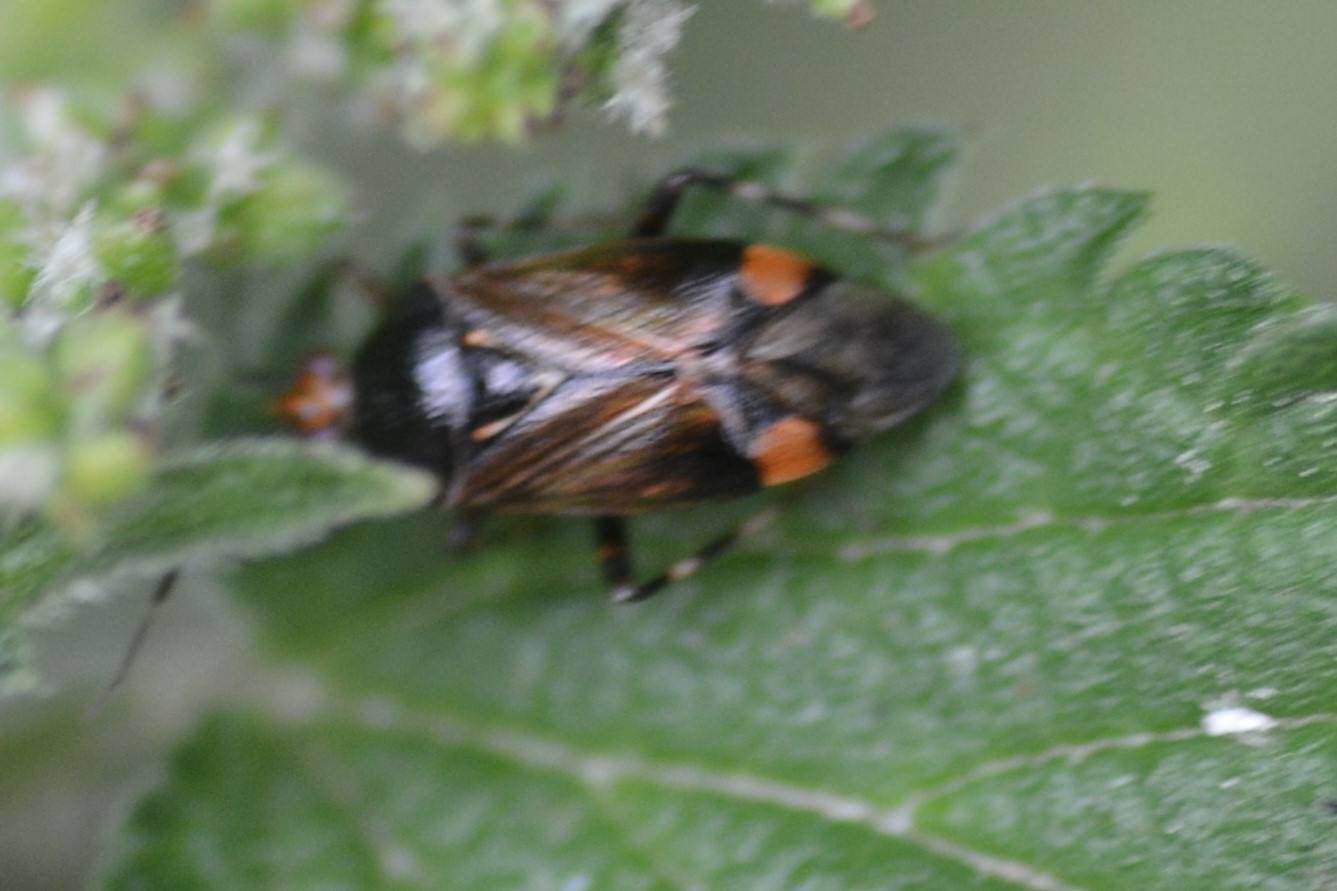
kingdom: Animalia
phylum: Arthropoda
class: Insecta
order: Hemiptera
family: Miridae
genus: Deraeocoris
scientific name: Deraeocoris flavilinea
